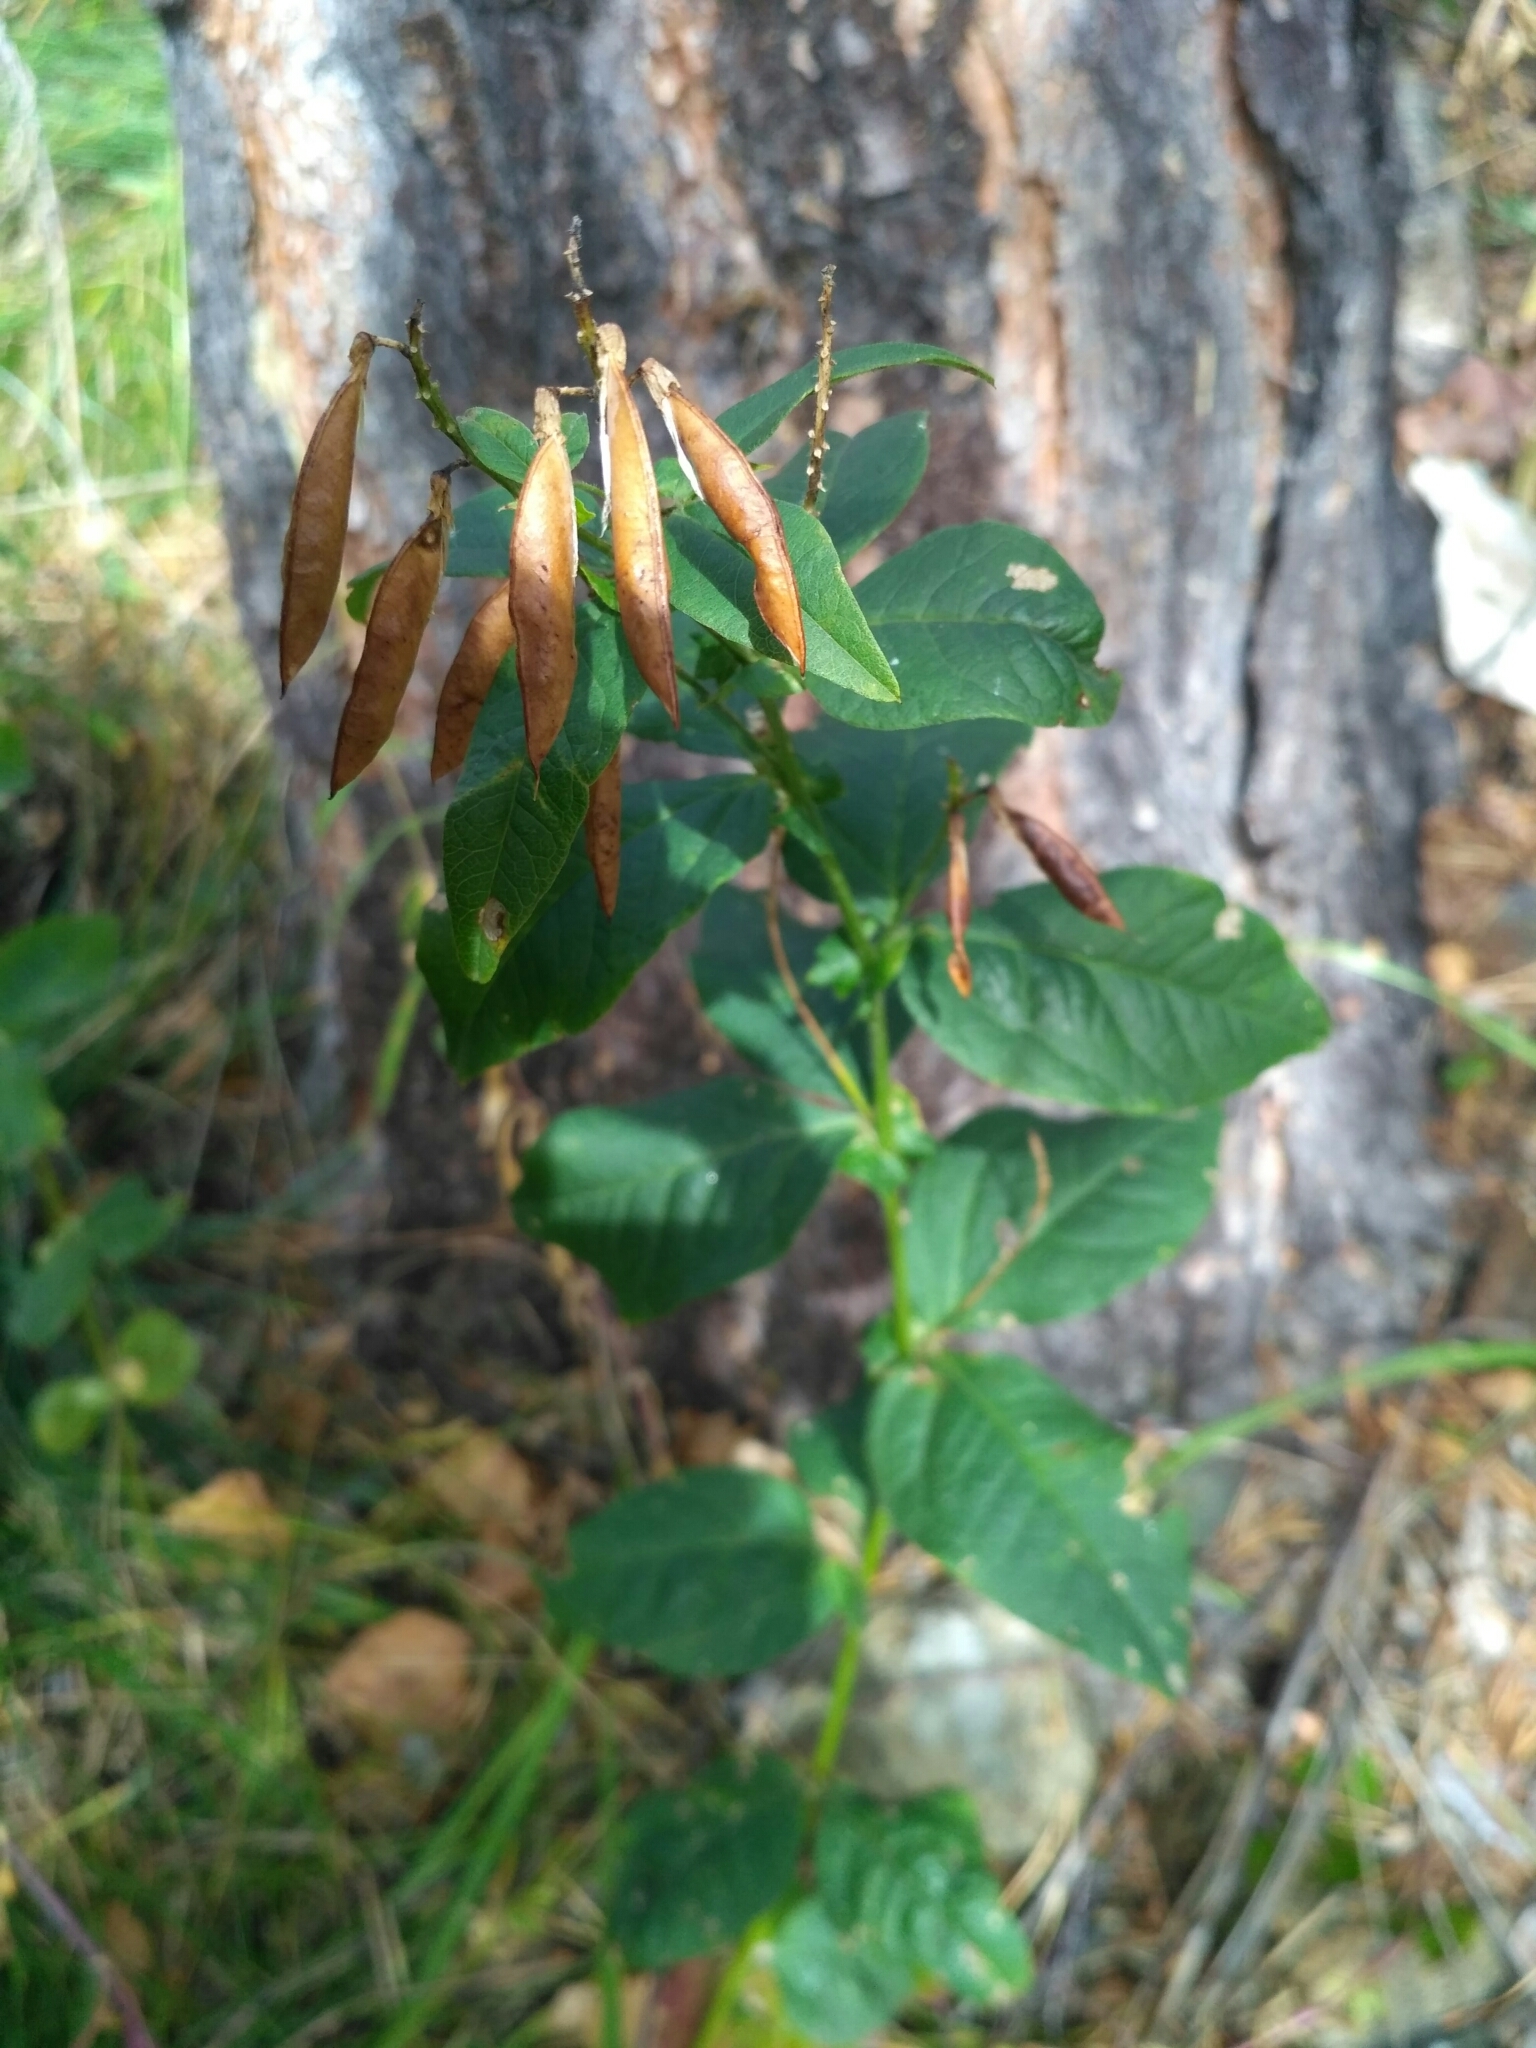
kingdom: Plantae
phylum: Tracheophyta
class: Magnoliopsida
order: Fabales
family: Fabaceae
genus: Vicia
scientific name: Vicia unijuga
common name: Two-leaf vetch
